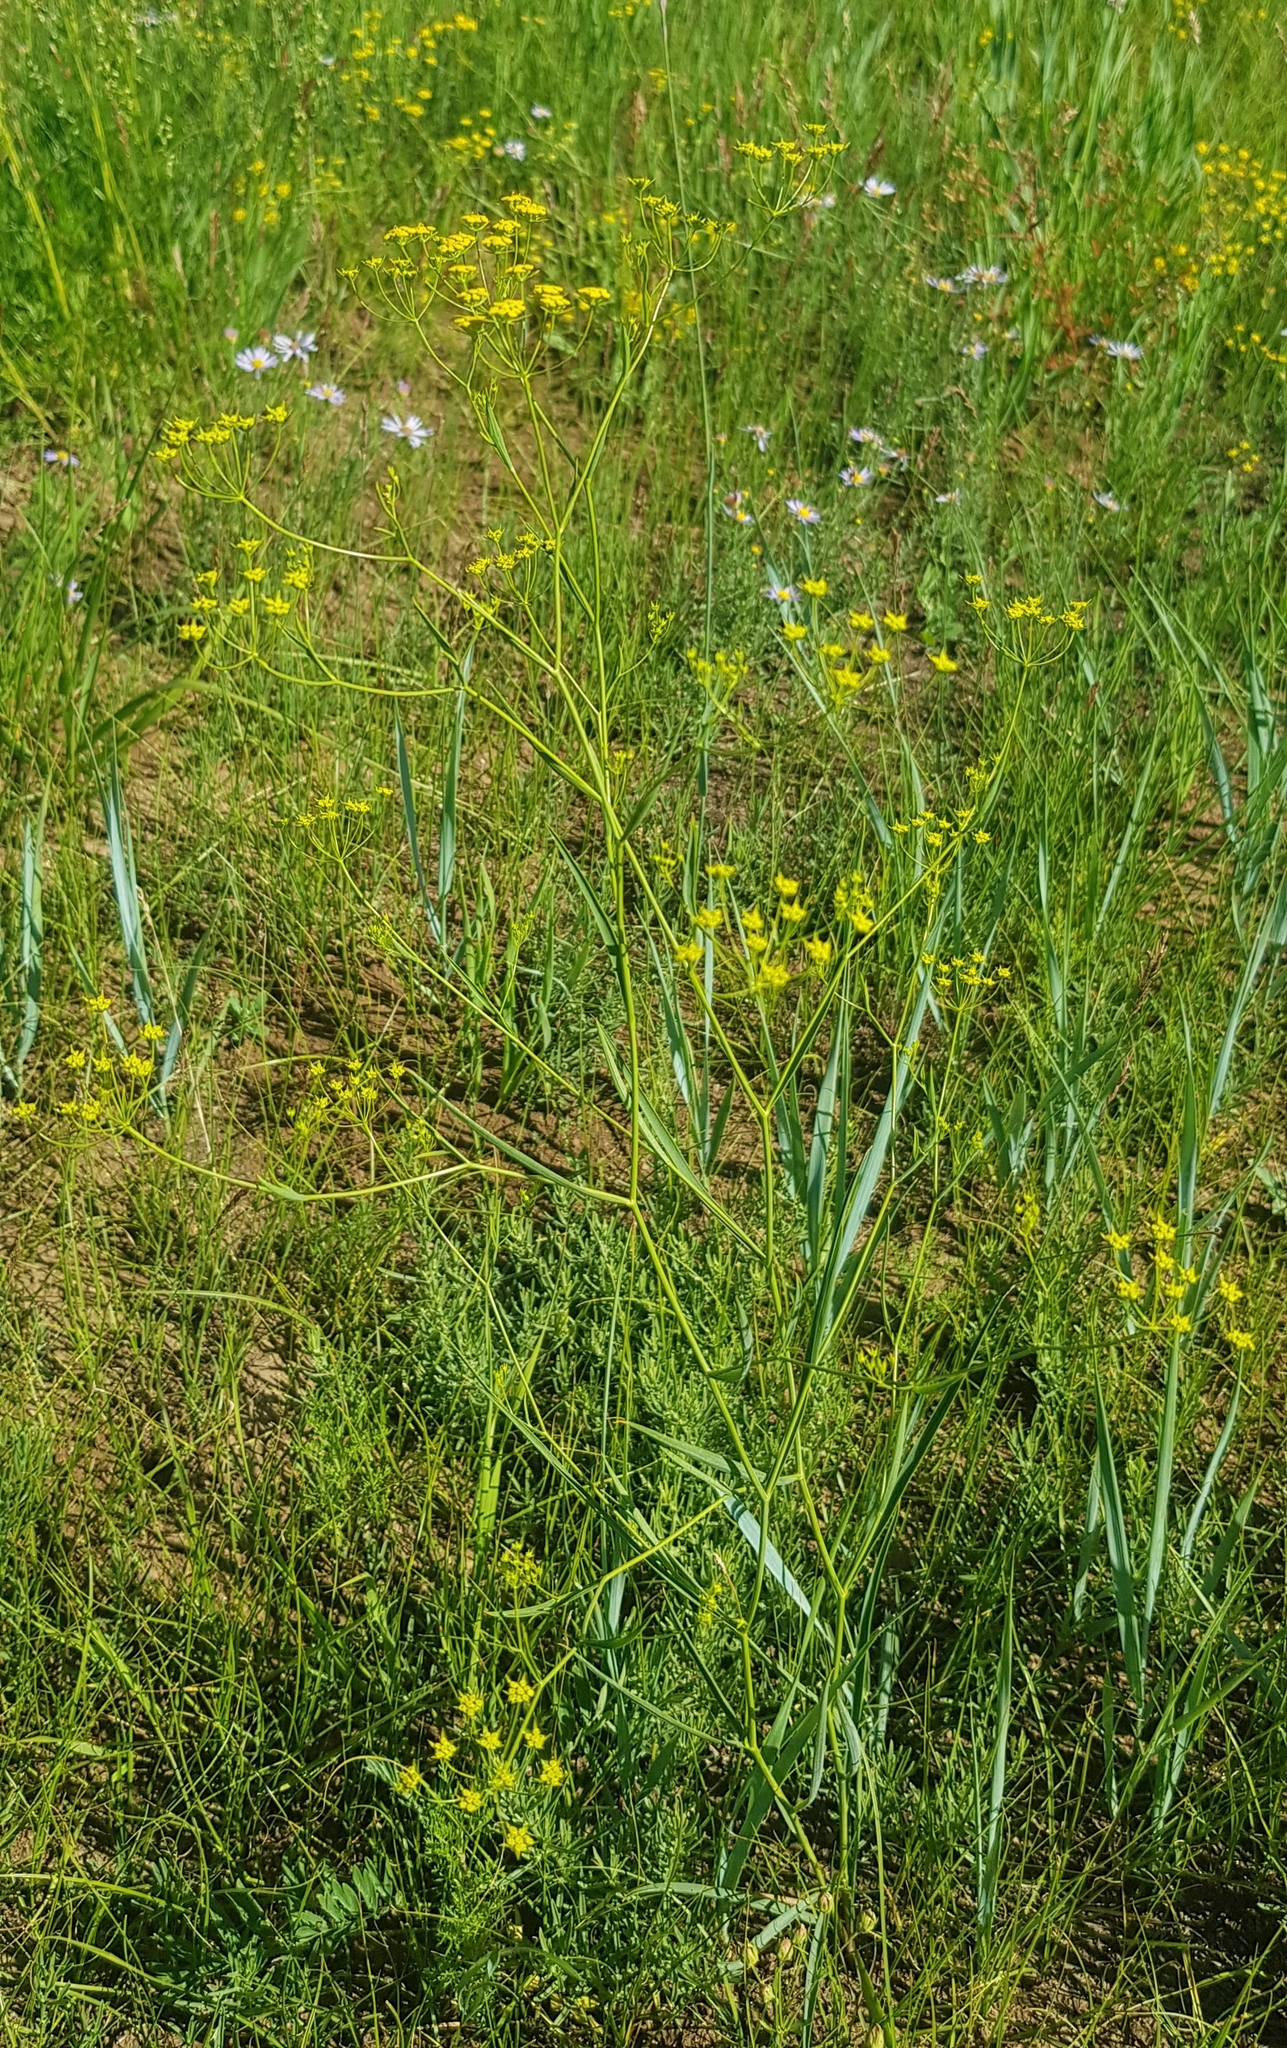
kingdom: Plantae
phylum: Tracheophyta
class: Magnoliopsida
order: Apiales
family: Apiaceae
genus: Bupleurum
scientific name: Bupleurum scorzonerifolium
